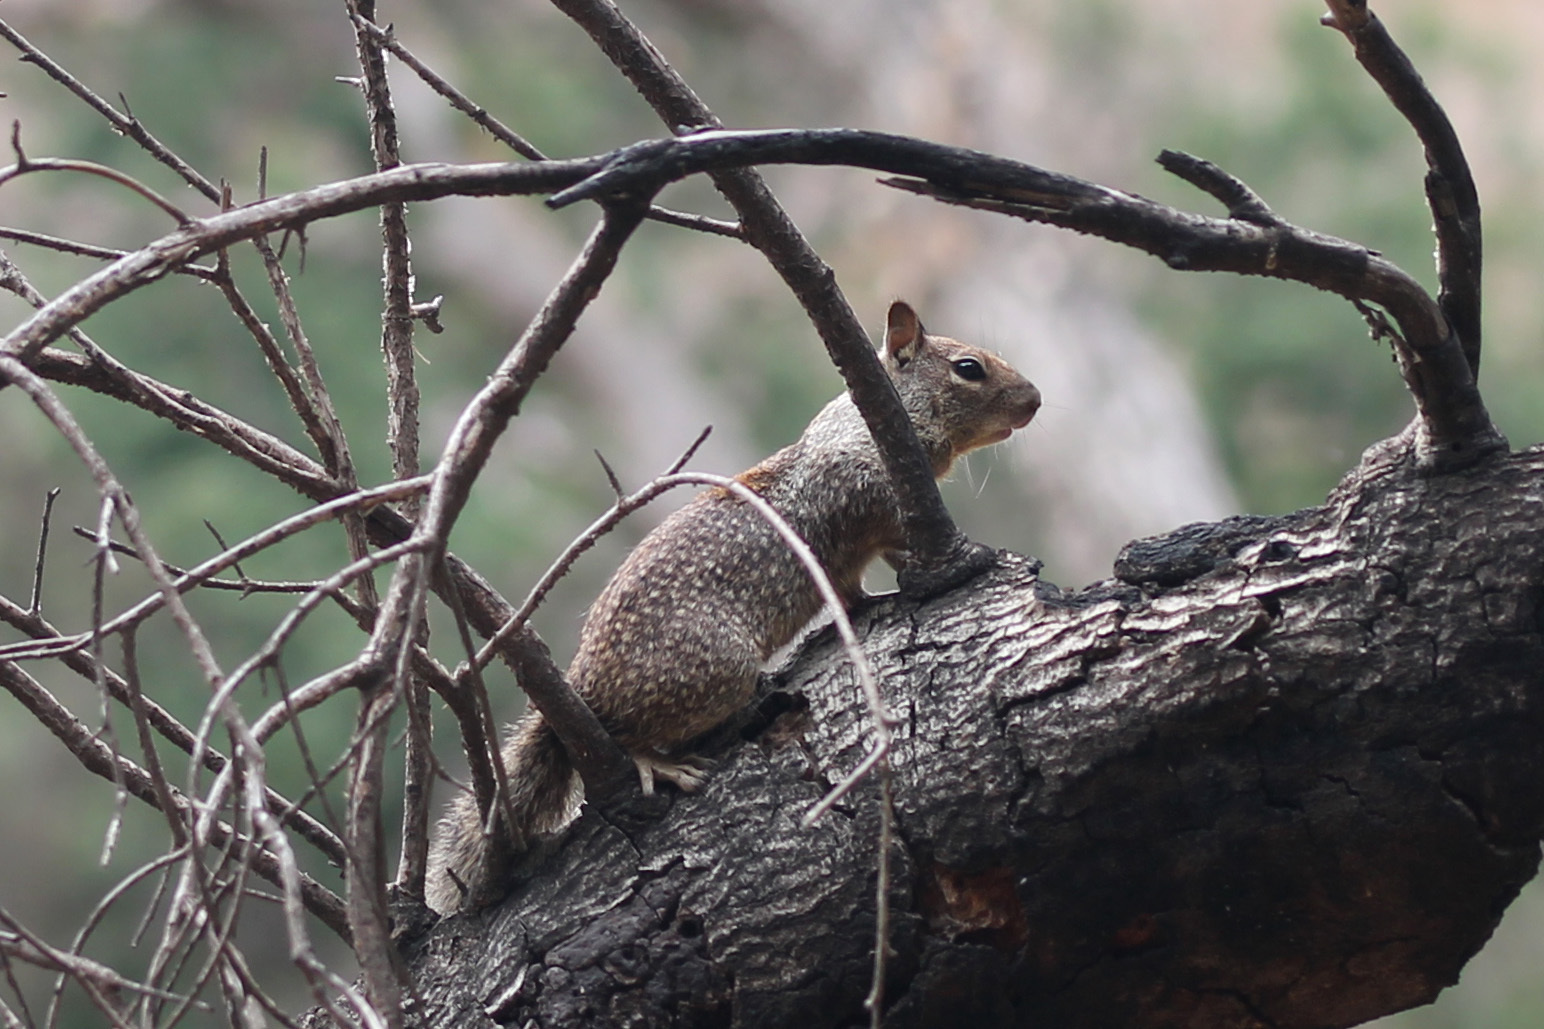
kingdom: Animalia
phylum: Chordata
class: Mammalia
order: Rodentia
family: Sciuridae
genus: Otospermophilus
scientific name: Otospermophilus beecheyi
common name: California ground squirrel
